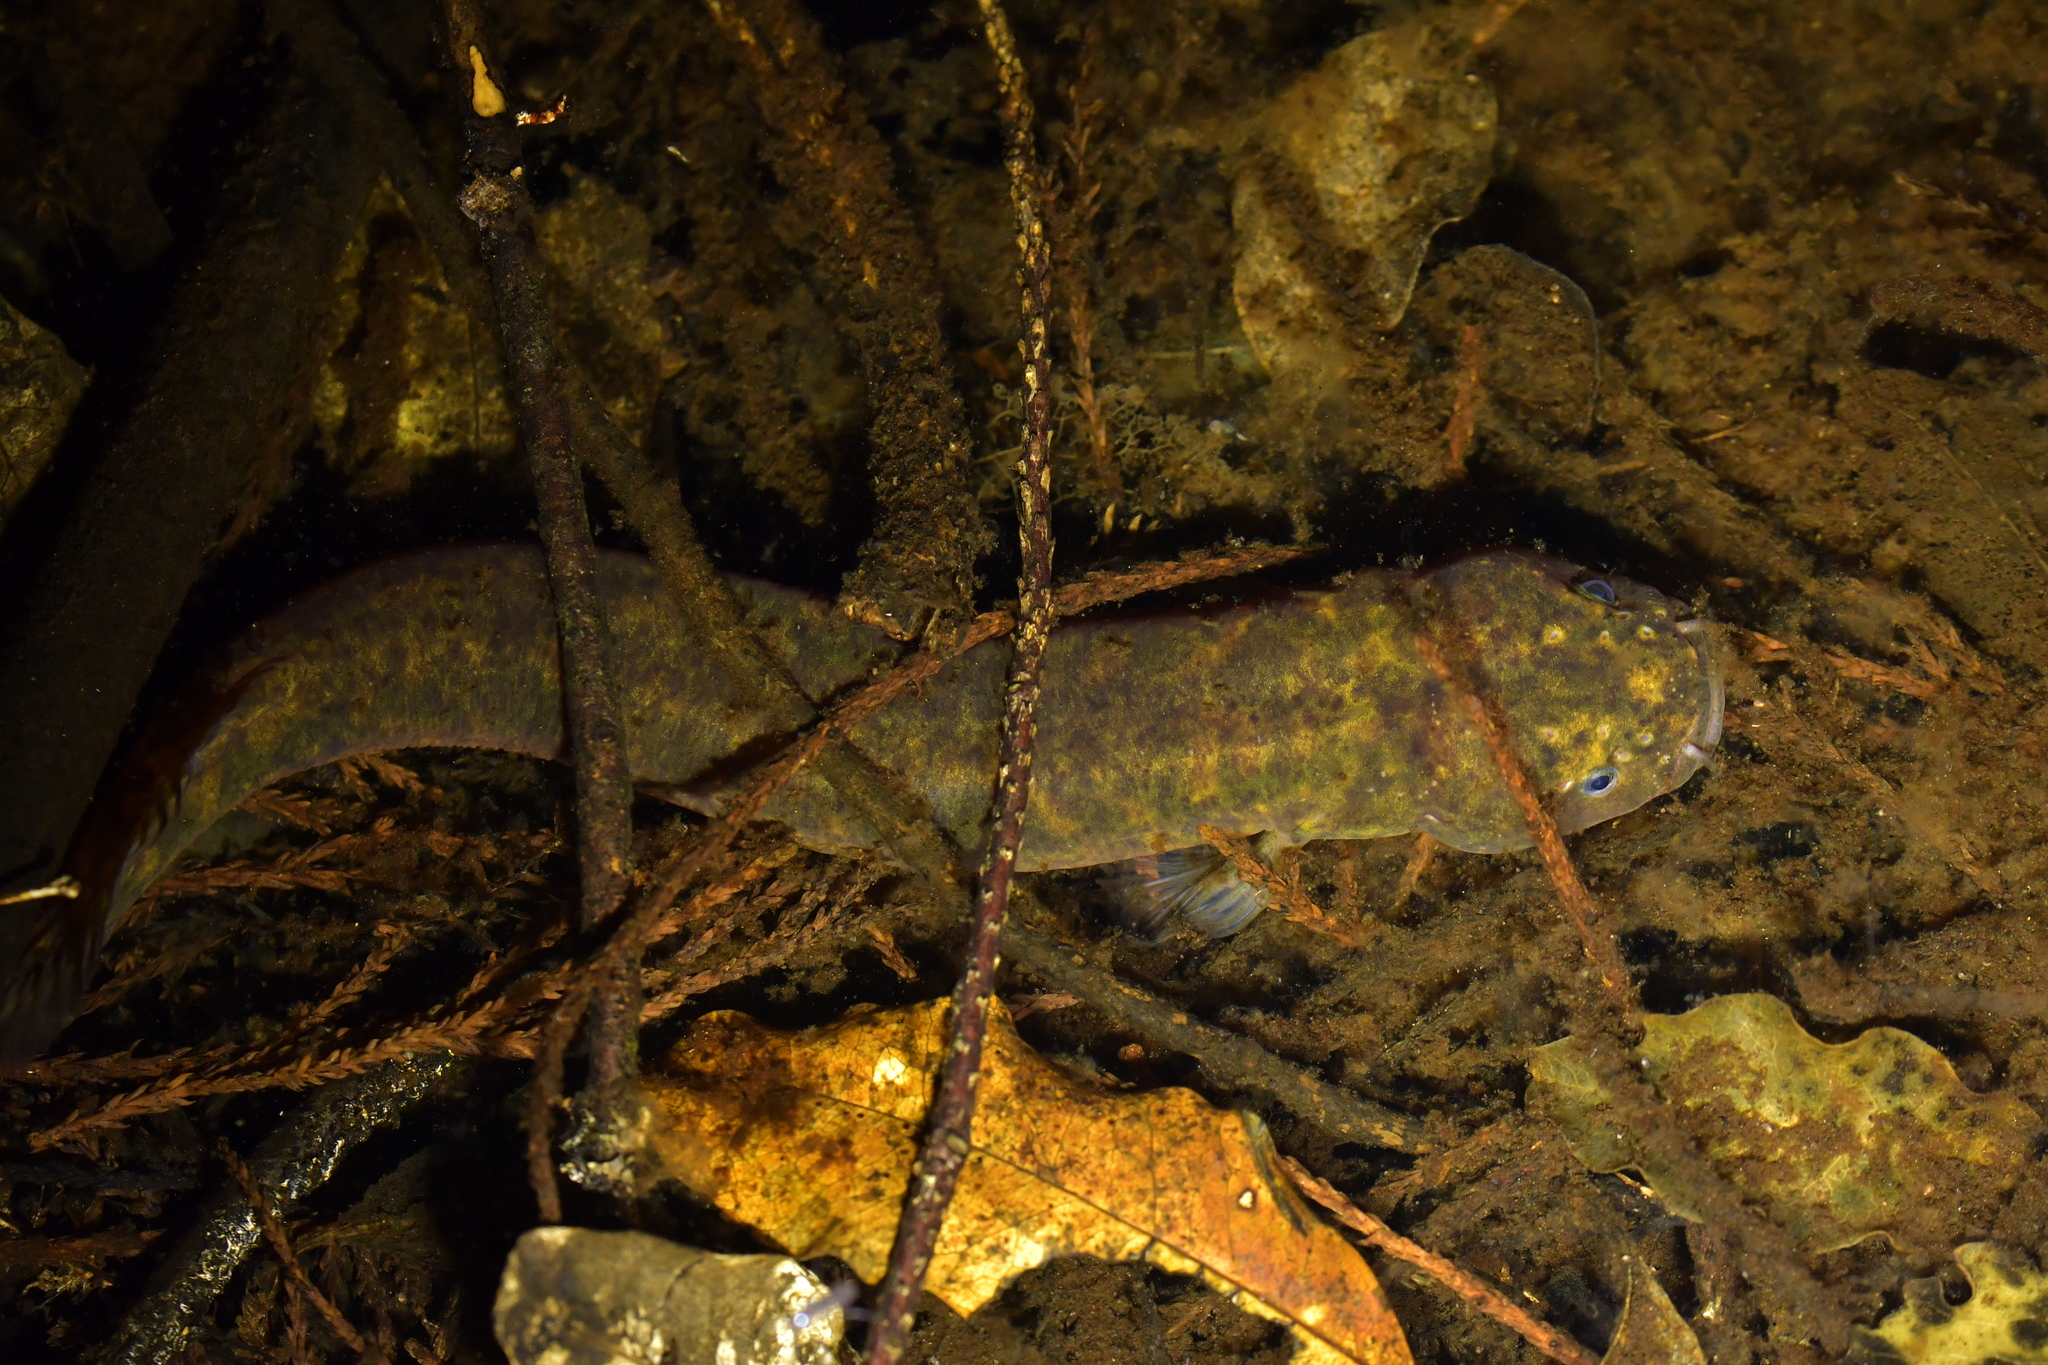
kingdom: Animalia
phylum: Chordata
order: Osmeriformes
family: Galaxiidae
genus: Neochanna
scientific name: Neochanna apoda
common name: Brown mudfish
